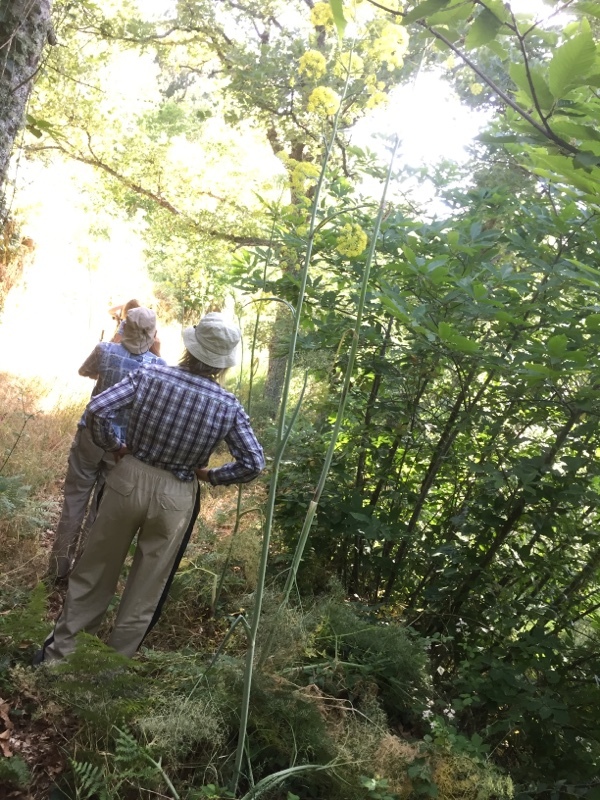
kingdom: Plantae
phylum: Tracheophyta
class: Magnoliopsida
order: Apiales
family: Apiaceae
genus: Ferula
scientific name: Ferula communis
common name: Giant fennel
